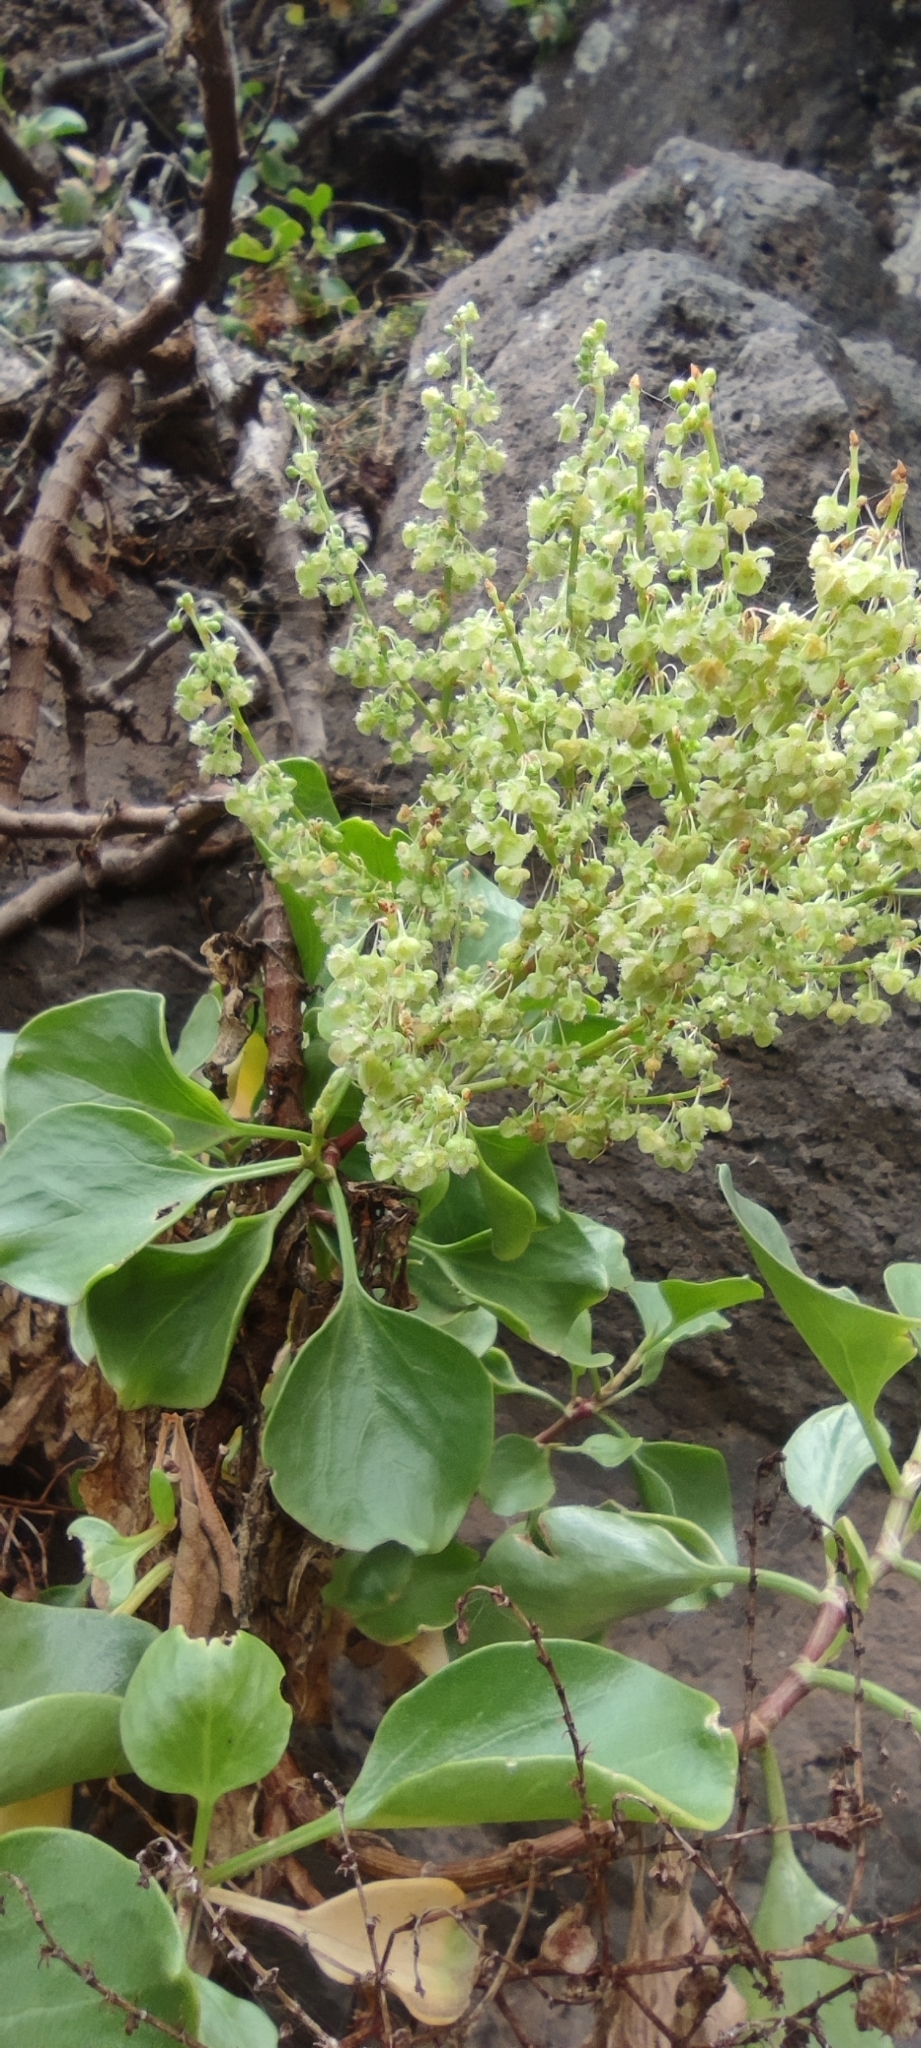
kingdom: Plantae
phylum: Tracheophyta
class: Magnoliopsida
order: Caryophyllales
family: Polygonaceae
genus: Rumex
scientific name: Rumex lunaria
